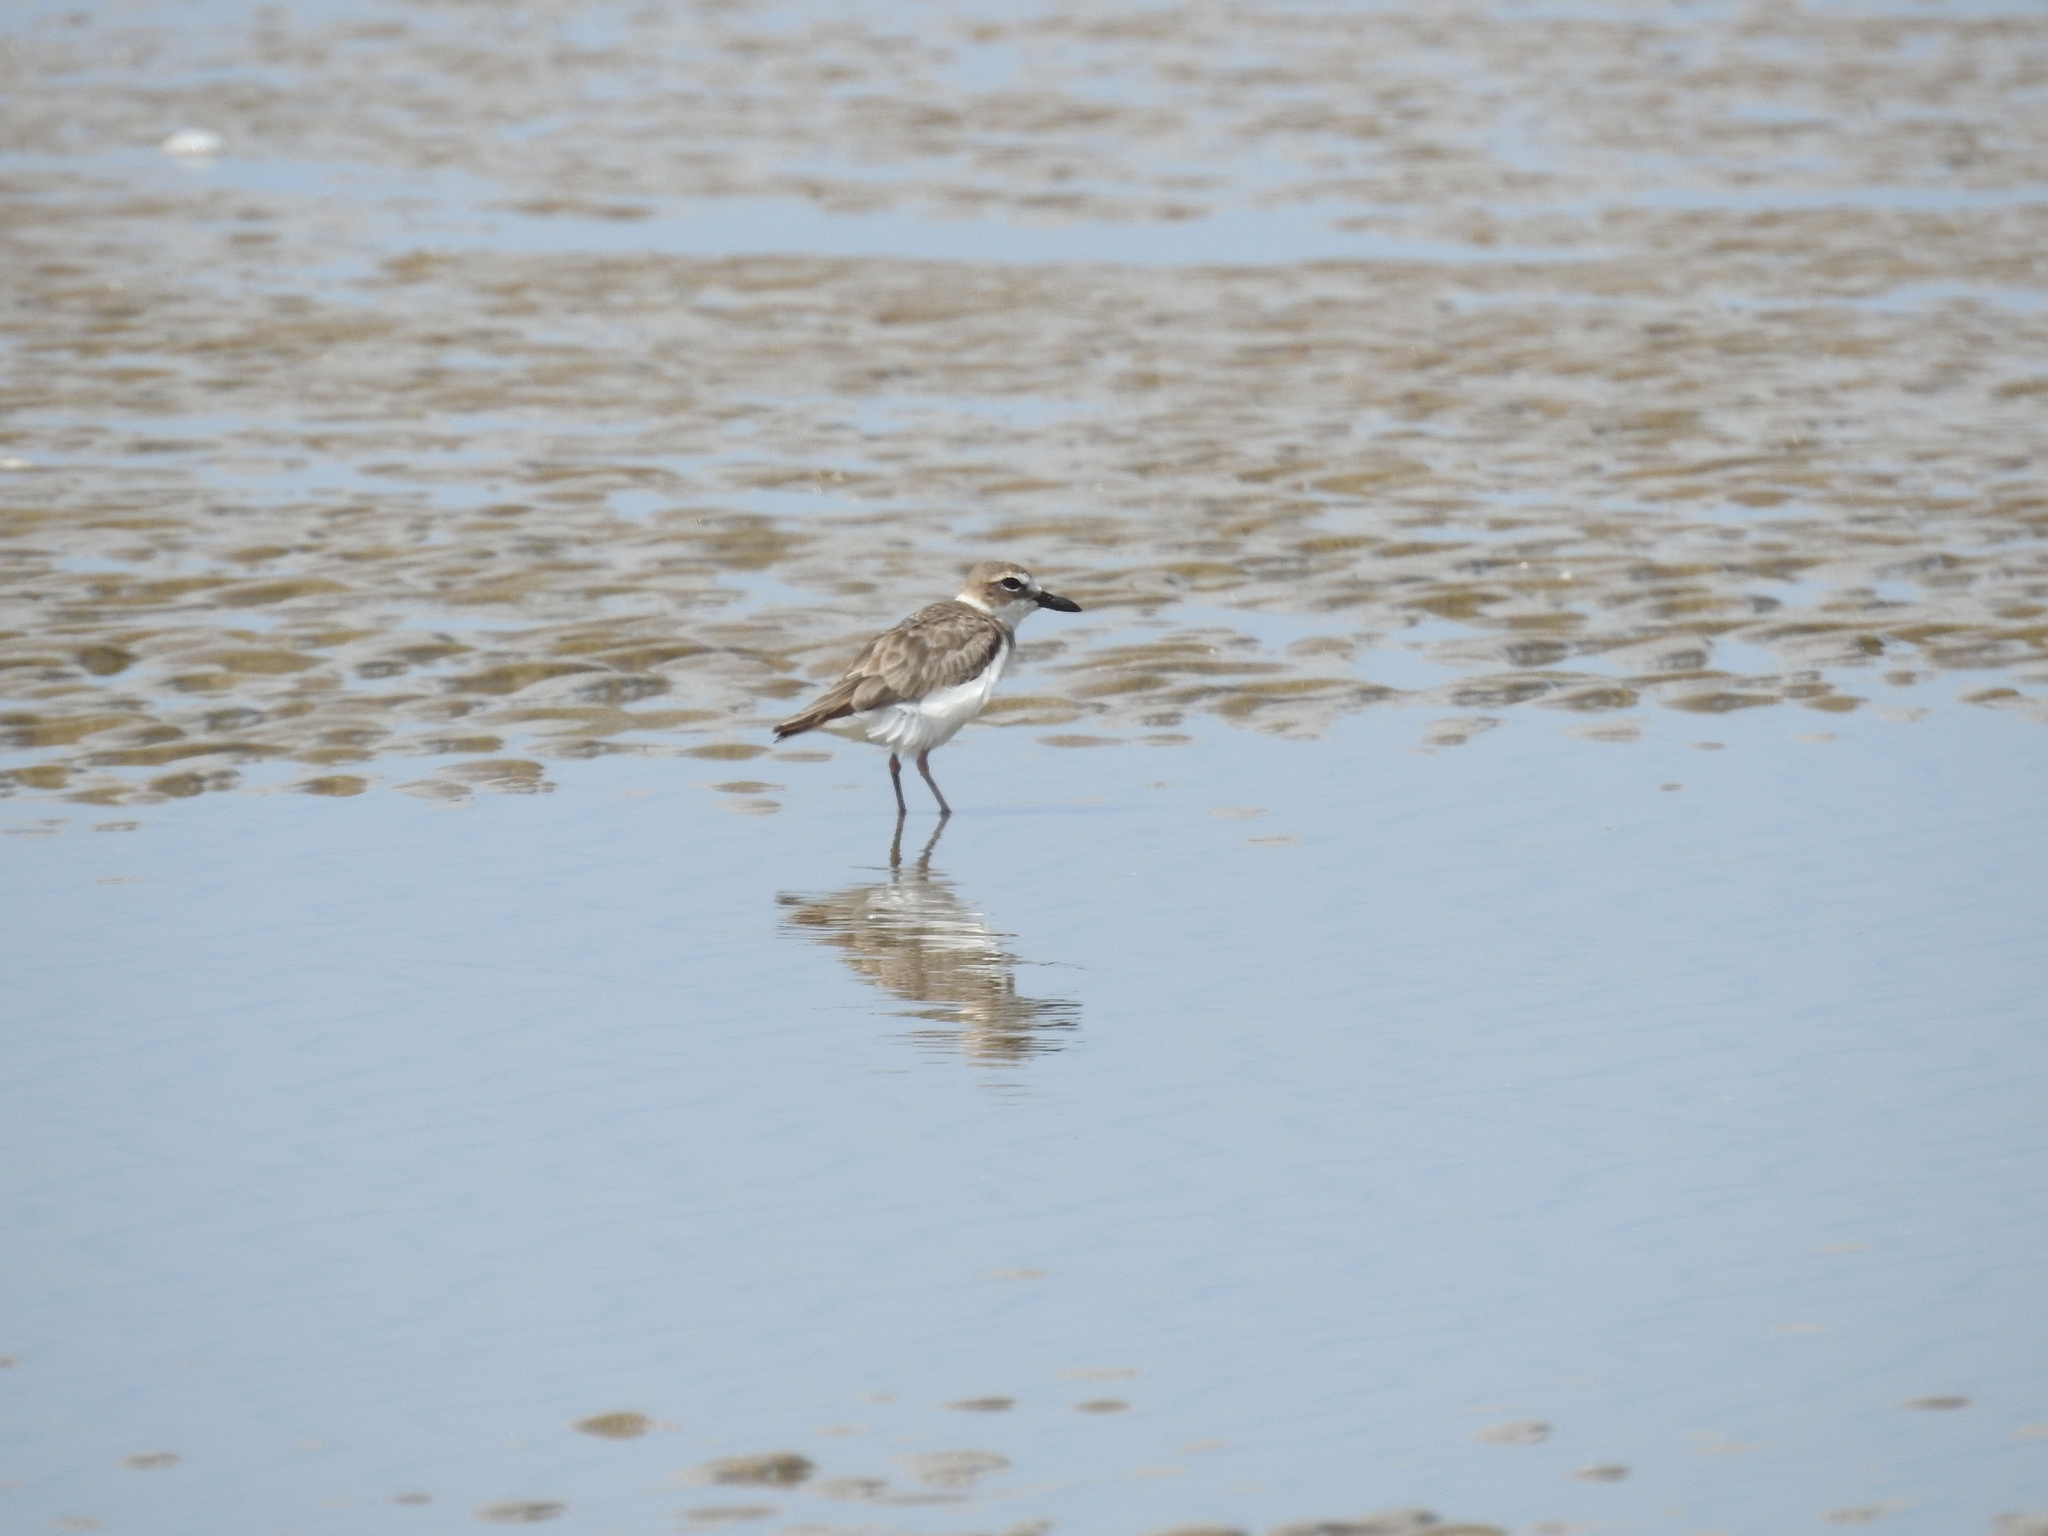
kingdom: Animalia
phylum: Chordata
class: Aves
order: Charadriiformes
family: Charadriidae
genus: Anarhynchus
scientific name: Anarhynchus
